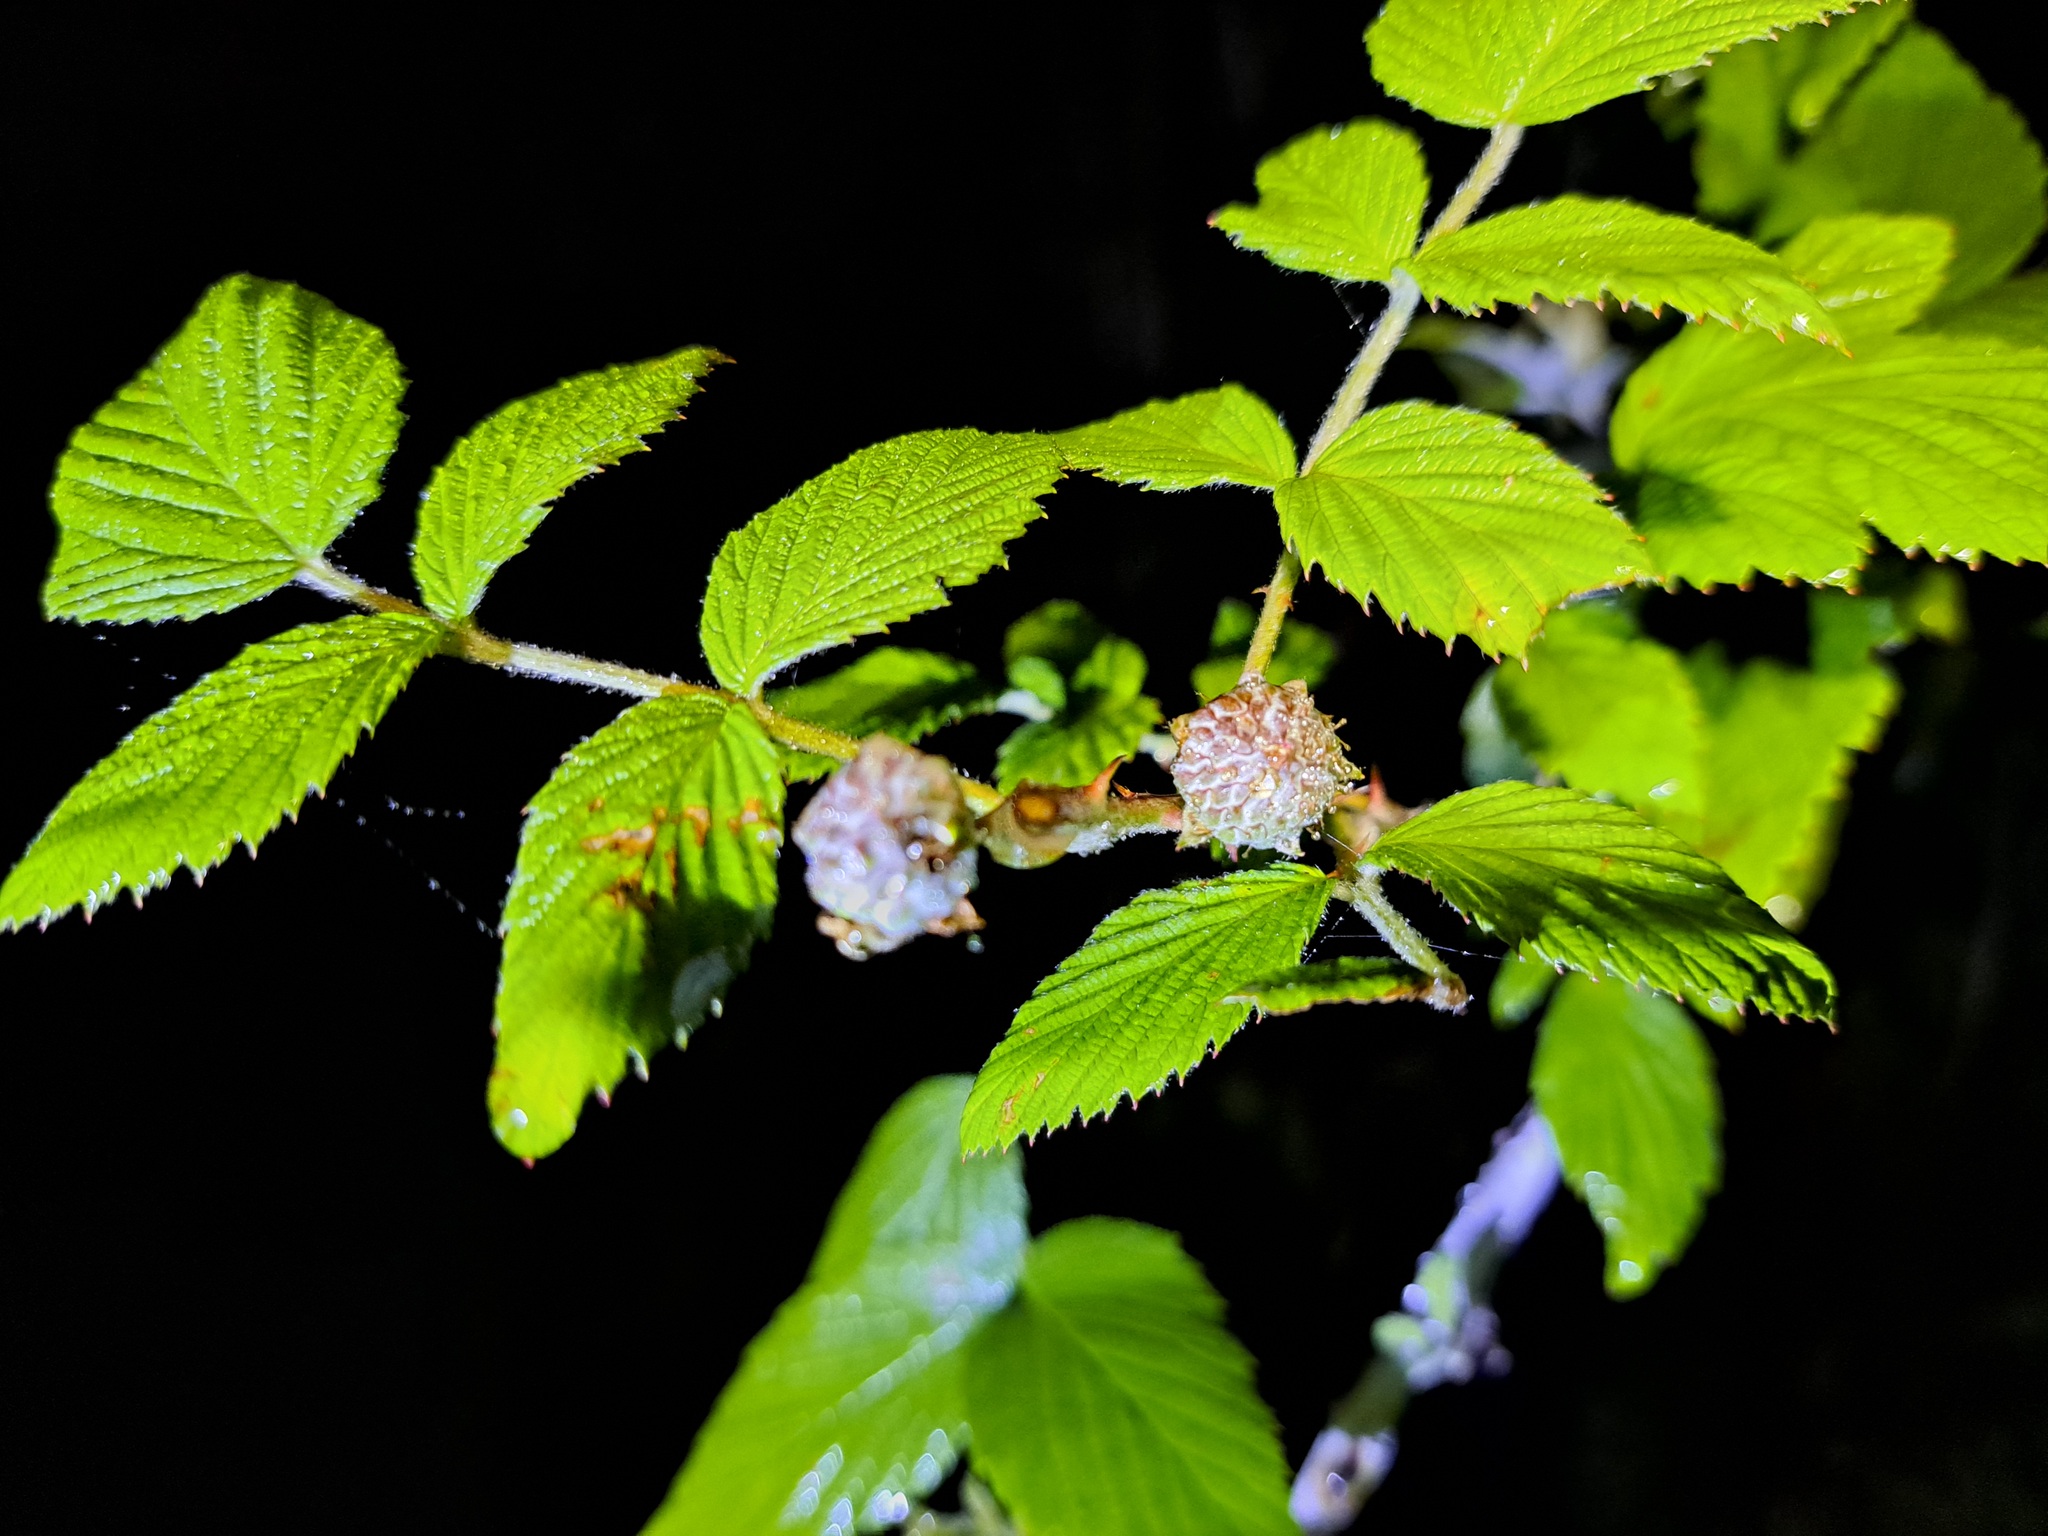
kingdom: Plantae
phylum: Tracheophyta
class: Magnoliopsida
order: Rosales
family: Rosaceae
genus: Rubus
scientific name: Rubus niveus
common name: Snowpeaks raspberry
